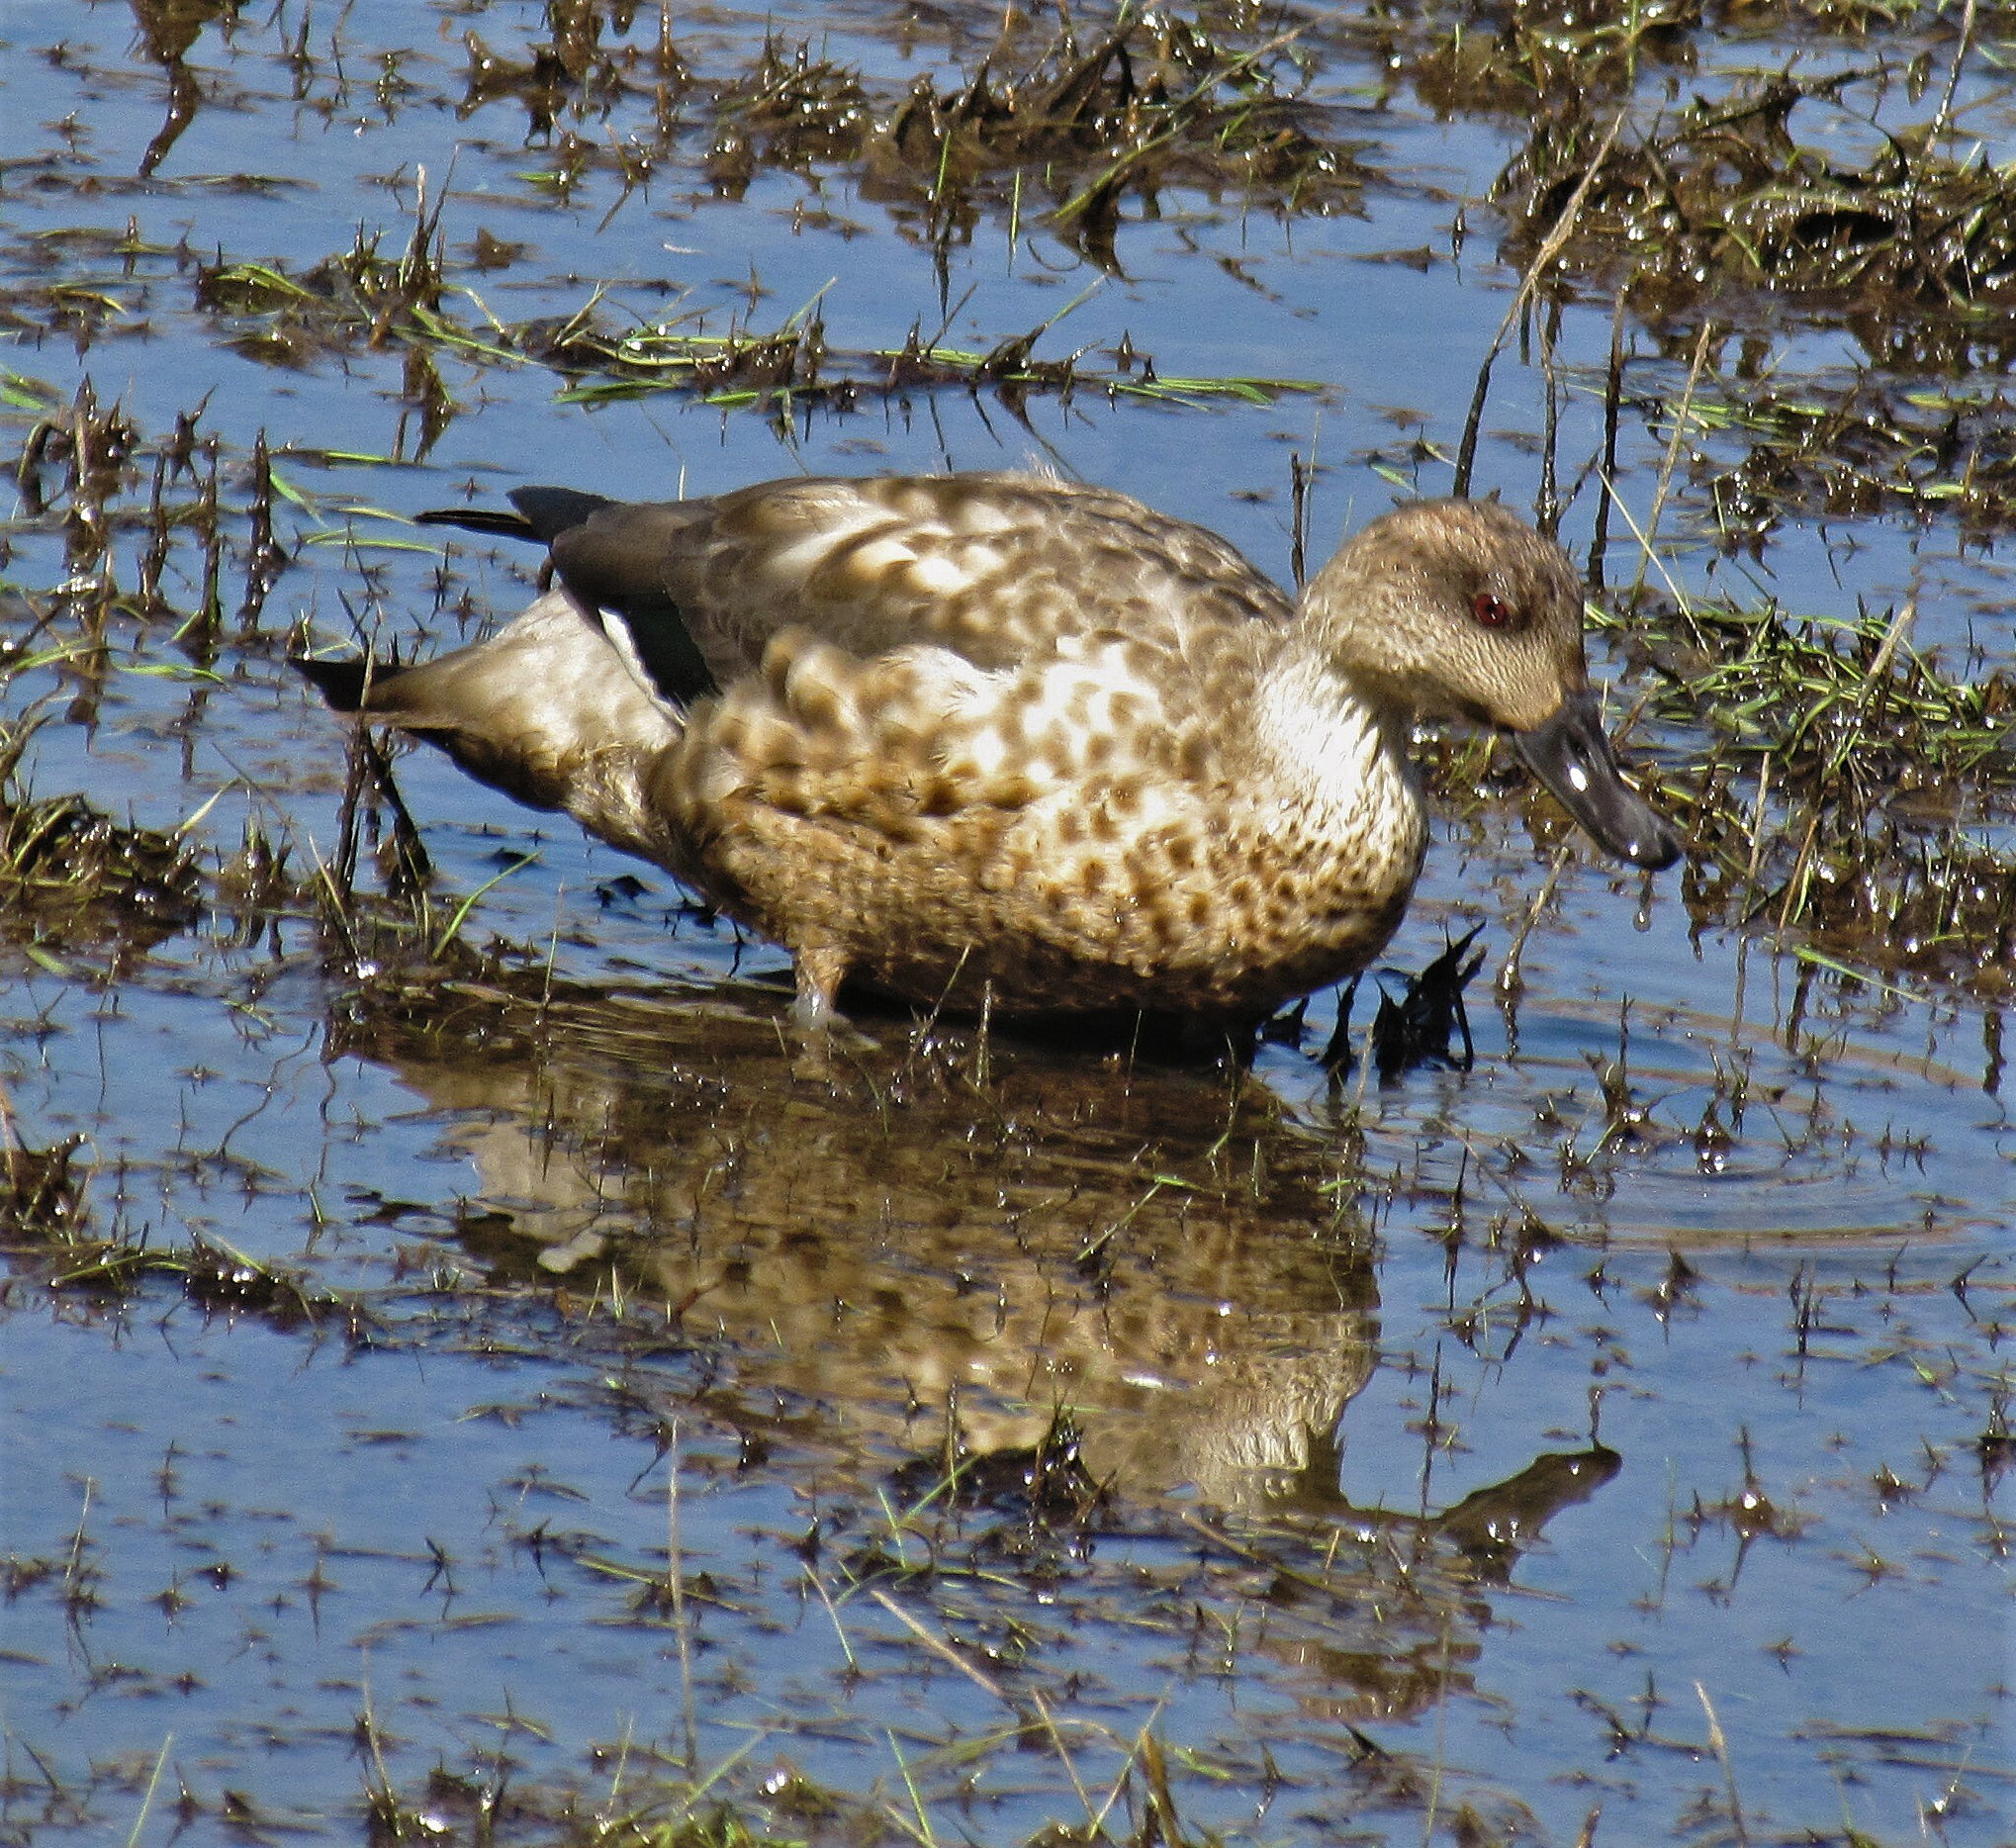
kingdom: Animalia
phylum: Chordata
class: Aves
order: Anseriformes
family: Anatidae
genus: Lophonetta
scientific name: Lophonetta specularioides
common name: Crested duck
